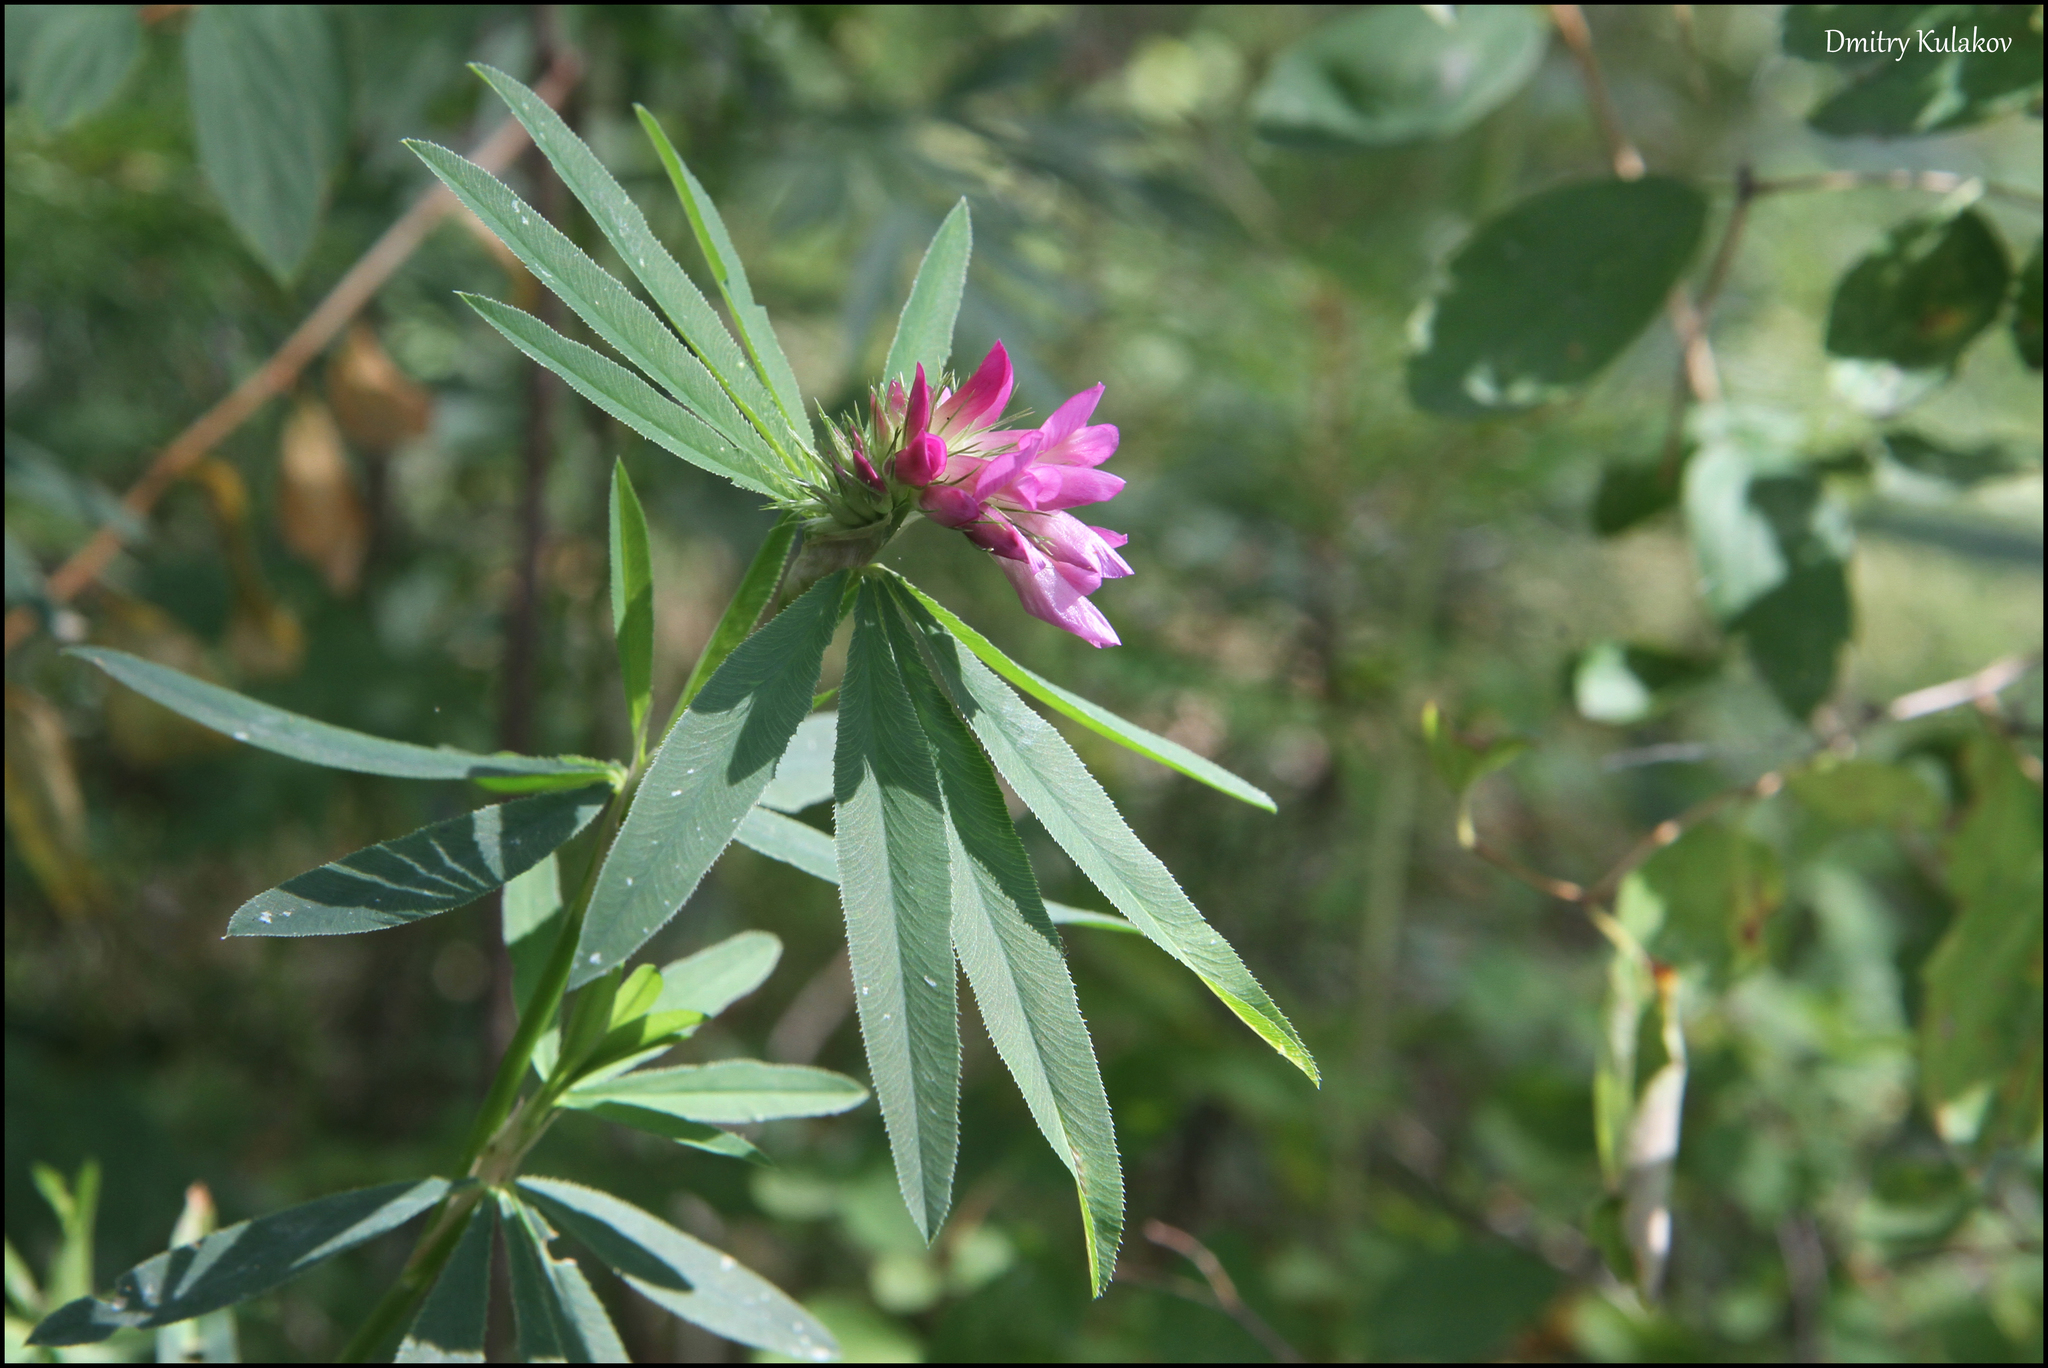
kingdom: Plantae
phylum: Tracheophyta
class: Magnoliopsida
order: Fabales
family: Fabaceae
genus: Trifolium
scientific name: Trifolium lupinaster
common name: Lupine clover
